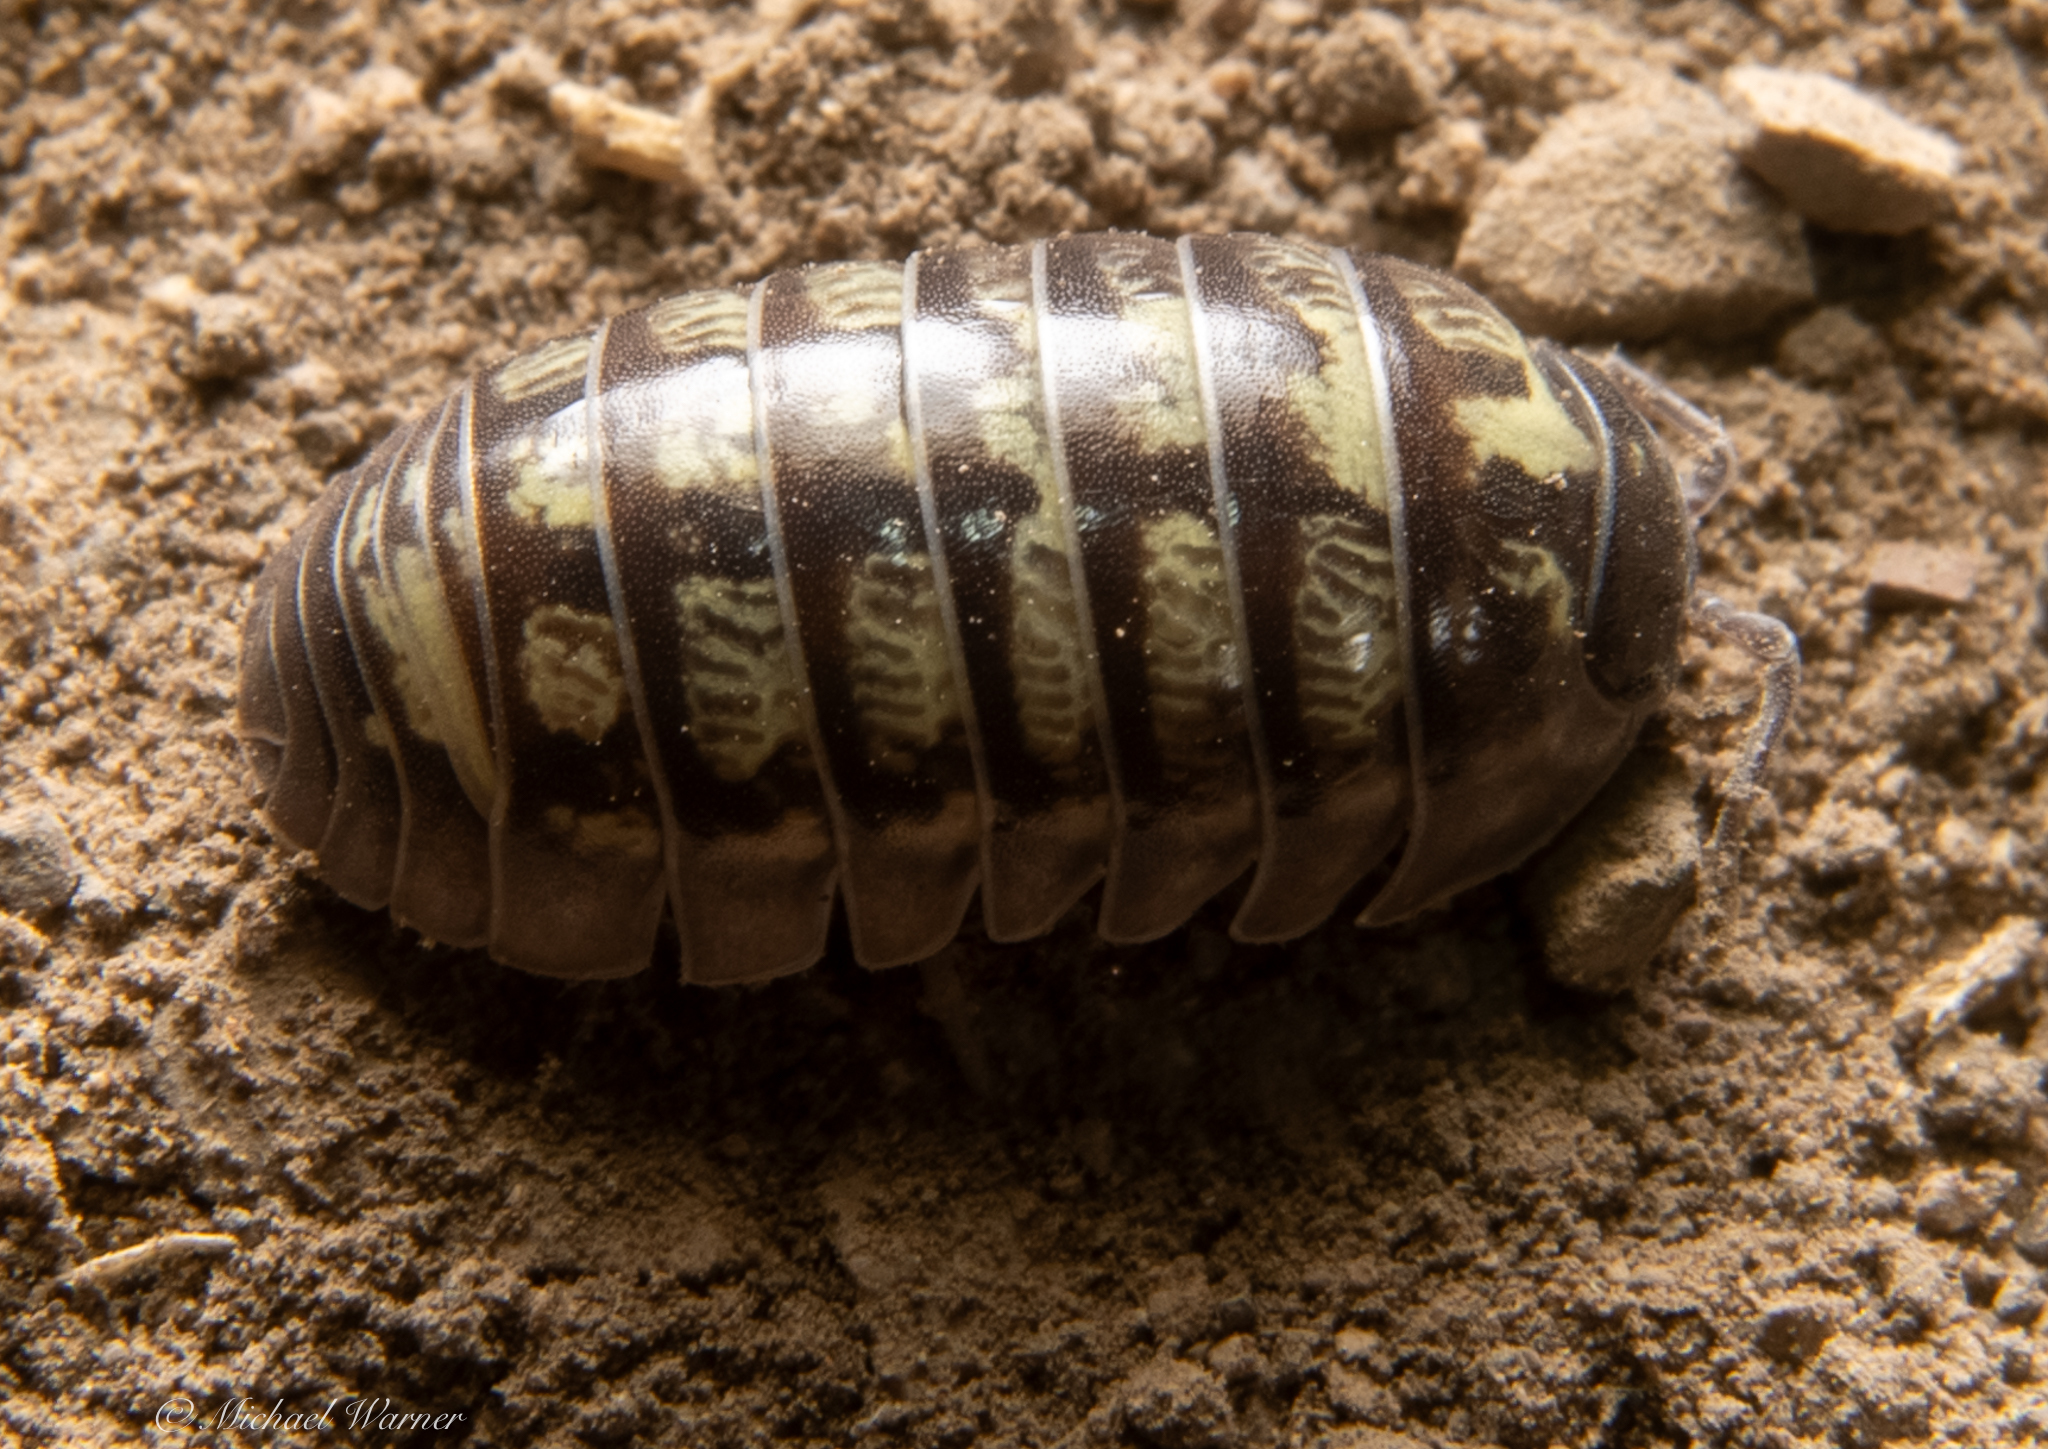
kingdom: Animalia
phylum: Arthropoda
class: Malacostraca
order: Isopoda
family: Armadillidiidae
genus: Armadillidium
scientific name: Armadillidium vulgare
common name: Common pill woodlouse
